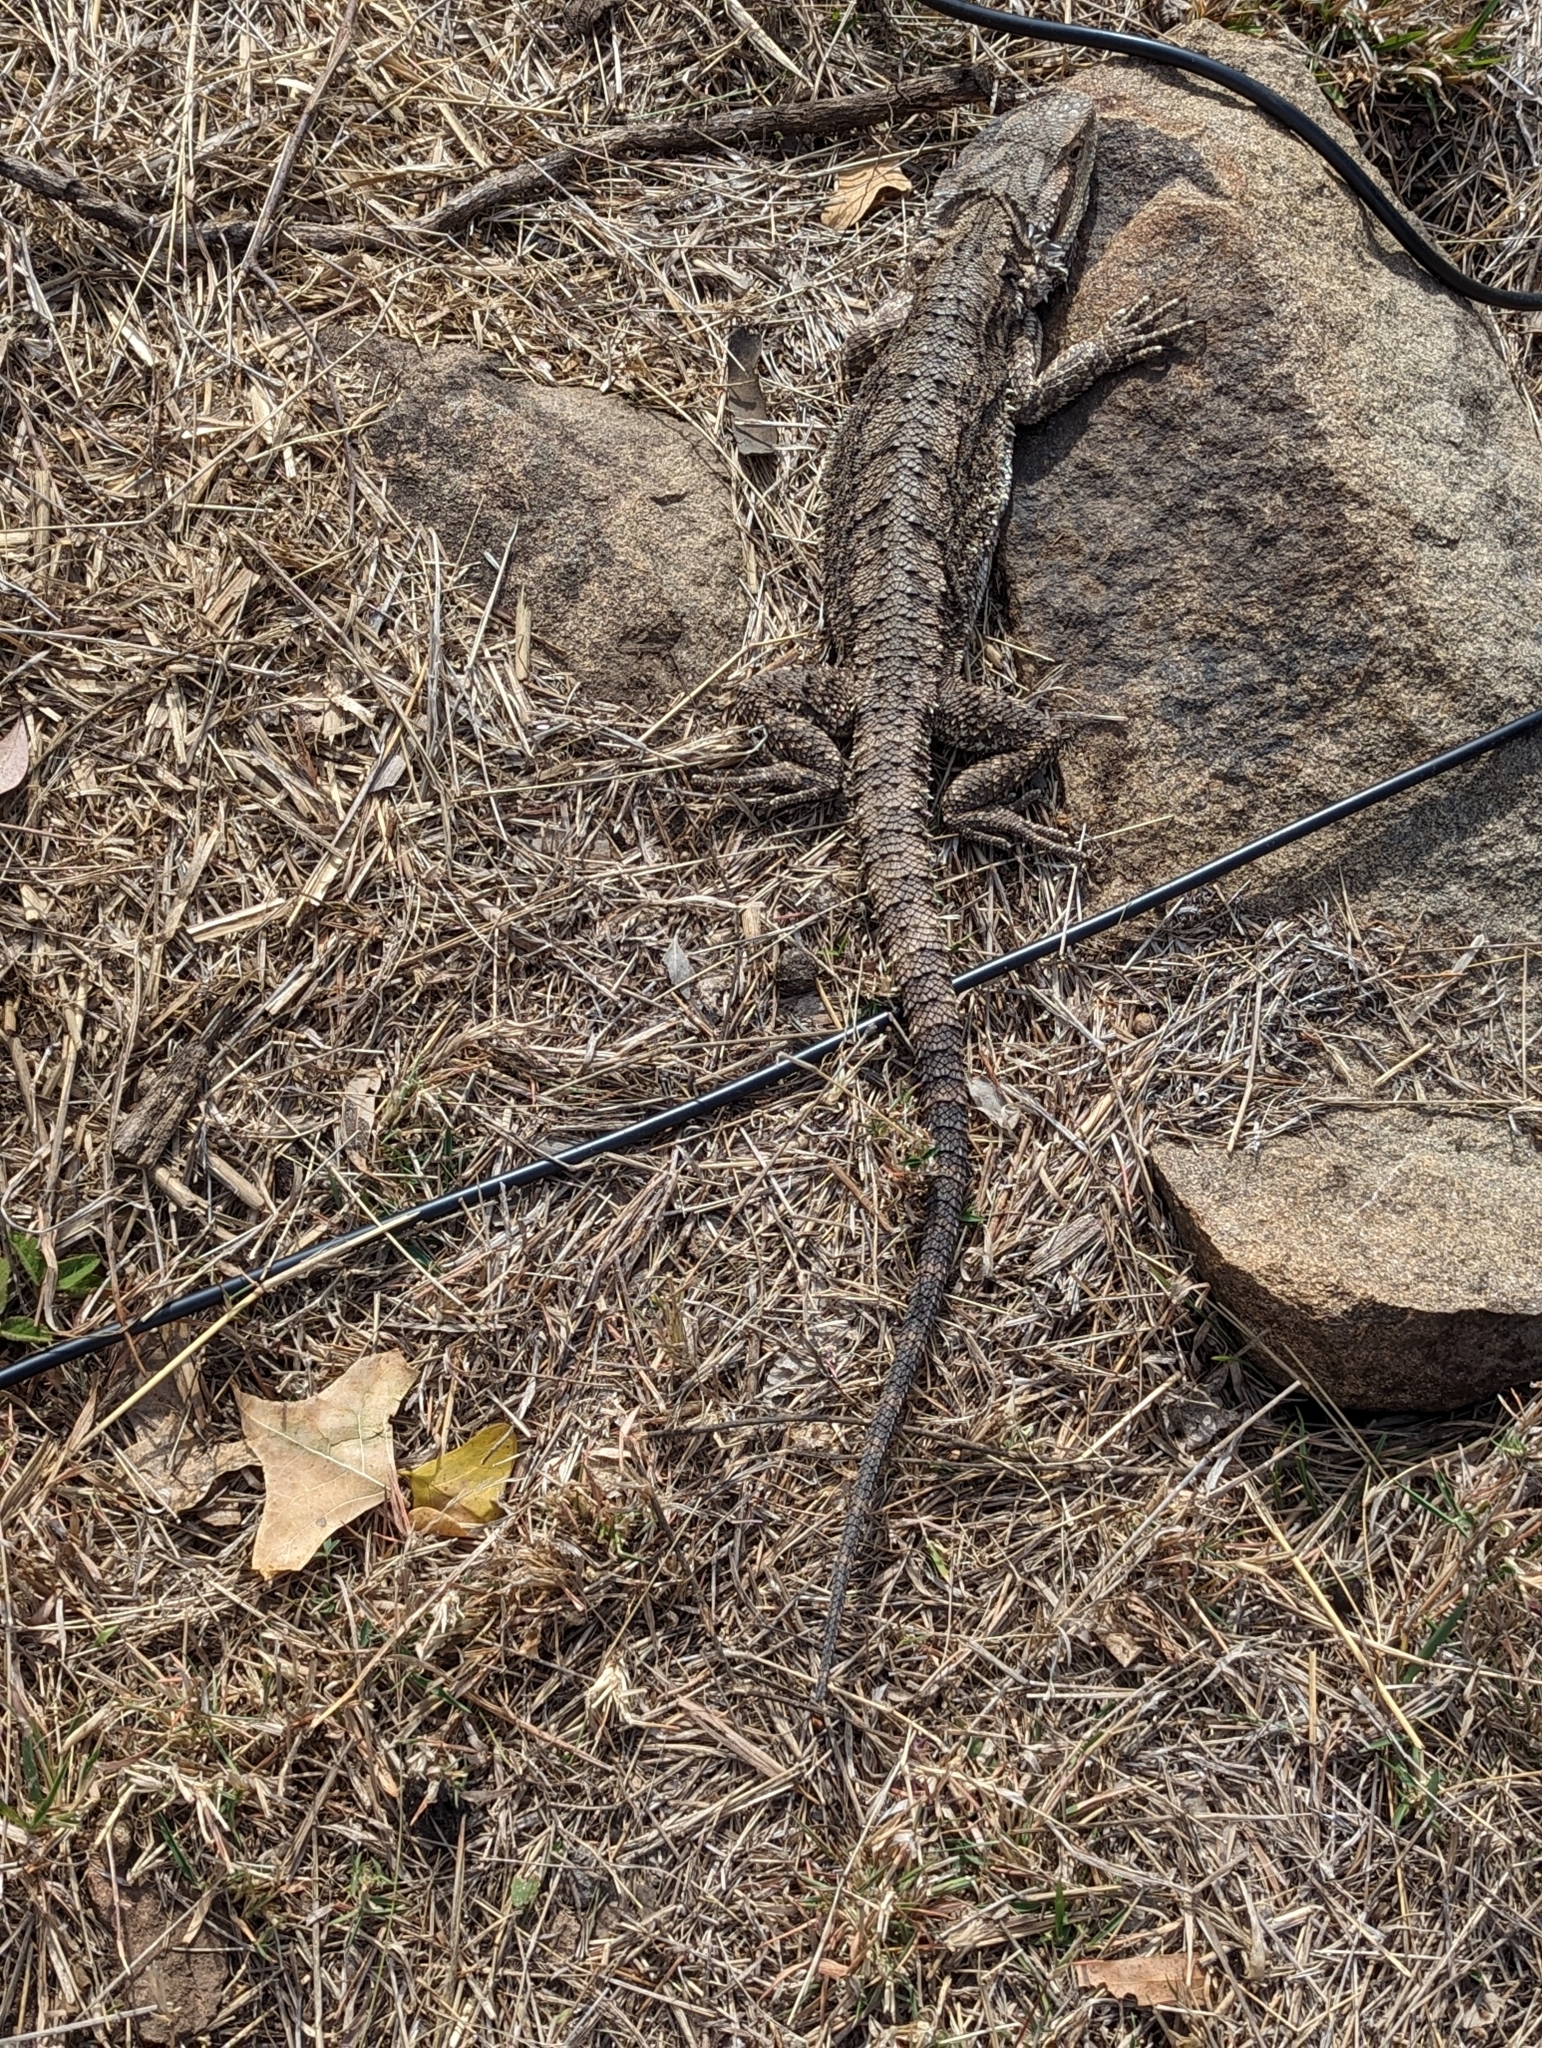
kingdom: Animalia
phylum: Chordata
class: Squamata
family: Agamidae
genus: Pogona
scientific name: Pogona barbata
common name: Bearded dragon
